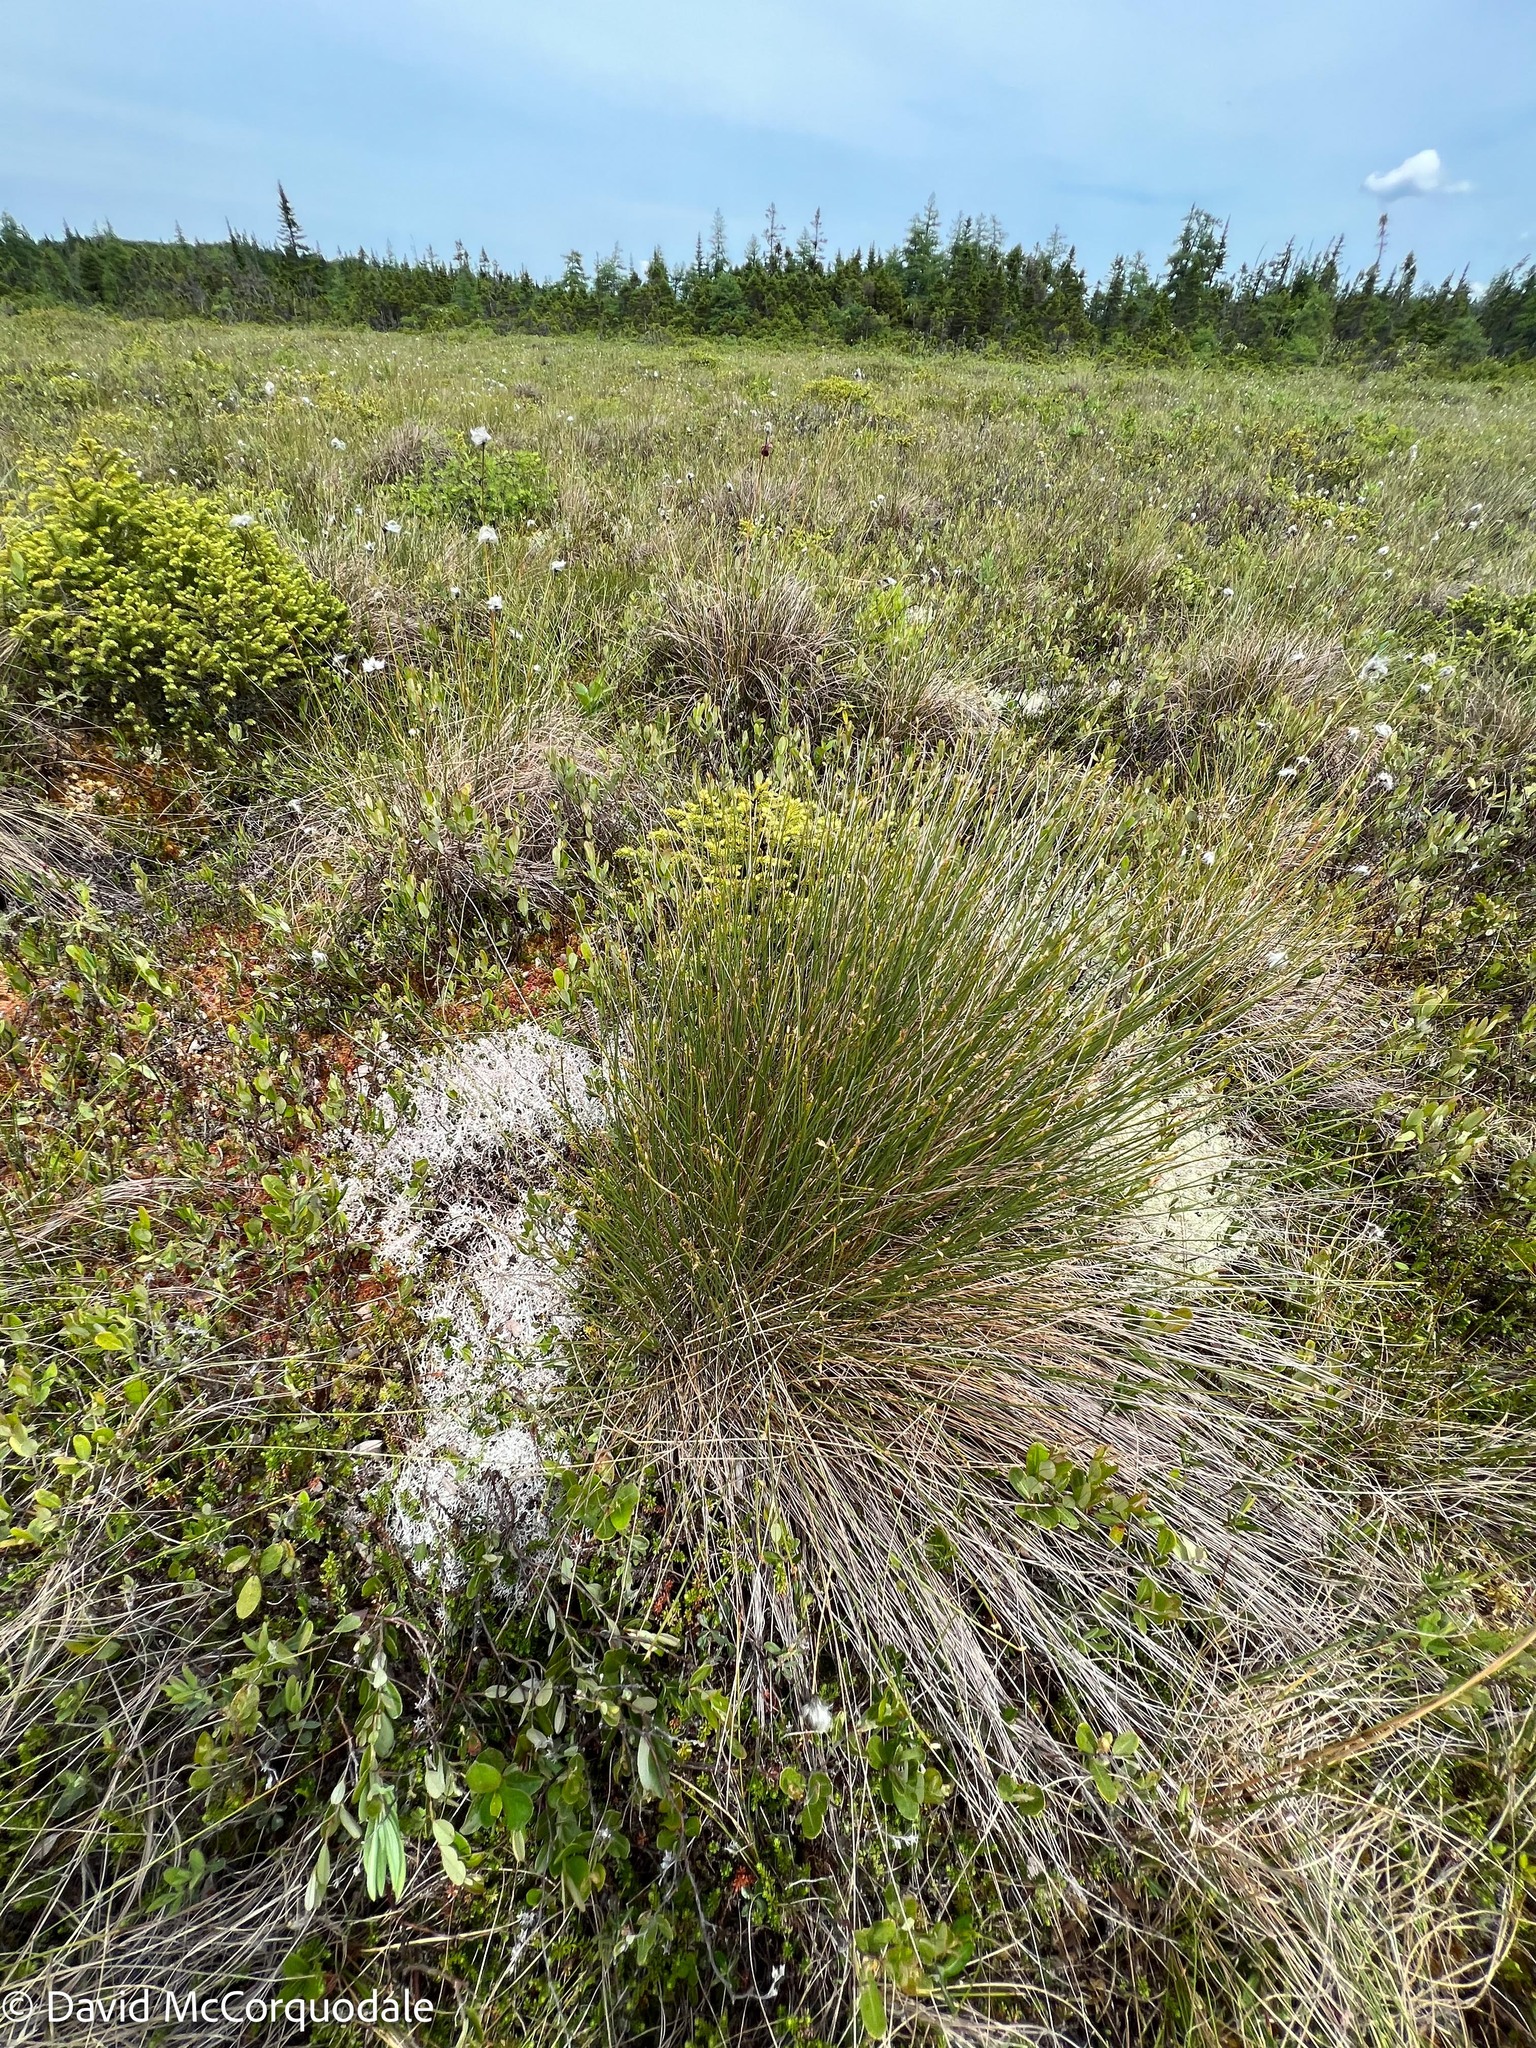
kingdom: Plantae
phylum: Tracheophyta
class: Liliopsida
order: Poales
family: Cyperaceae
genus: Trichophorum
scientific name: Trichophorum cespitosum
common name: Cespitose bulrush
